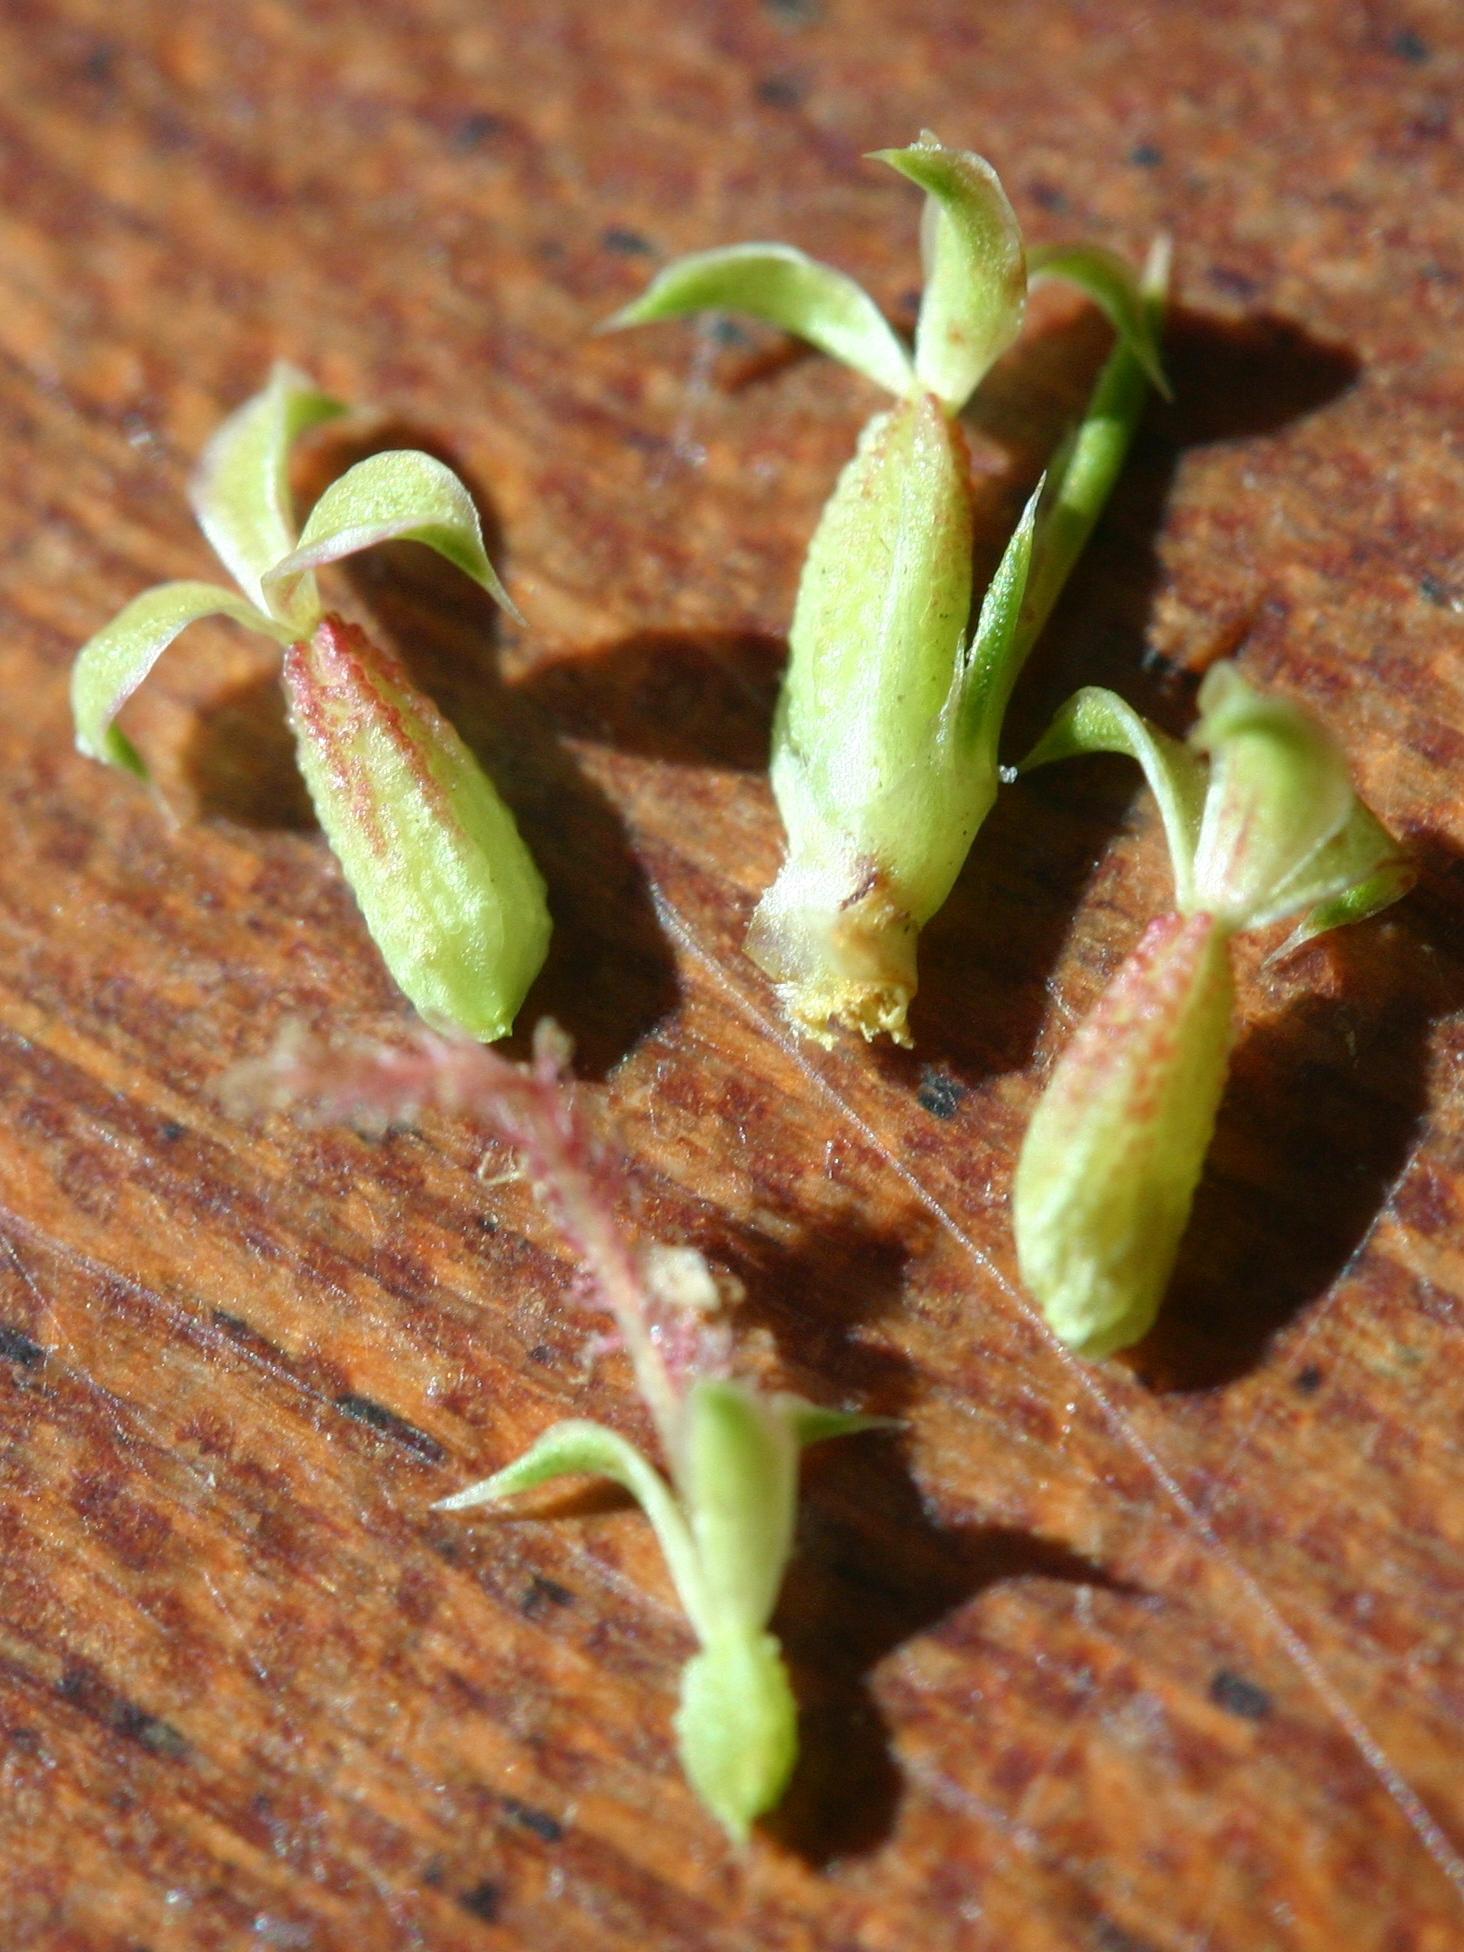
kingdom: Plantae
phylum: Tracheophyta
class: Magnoliopsida
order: Rosales
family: Rosaceae
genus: Cliffortia
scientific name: Cliffortia tuberculata
